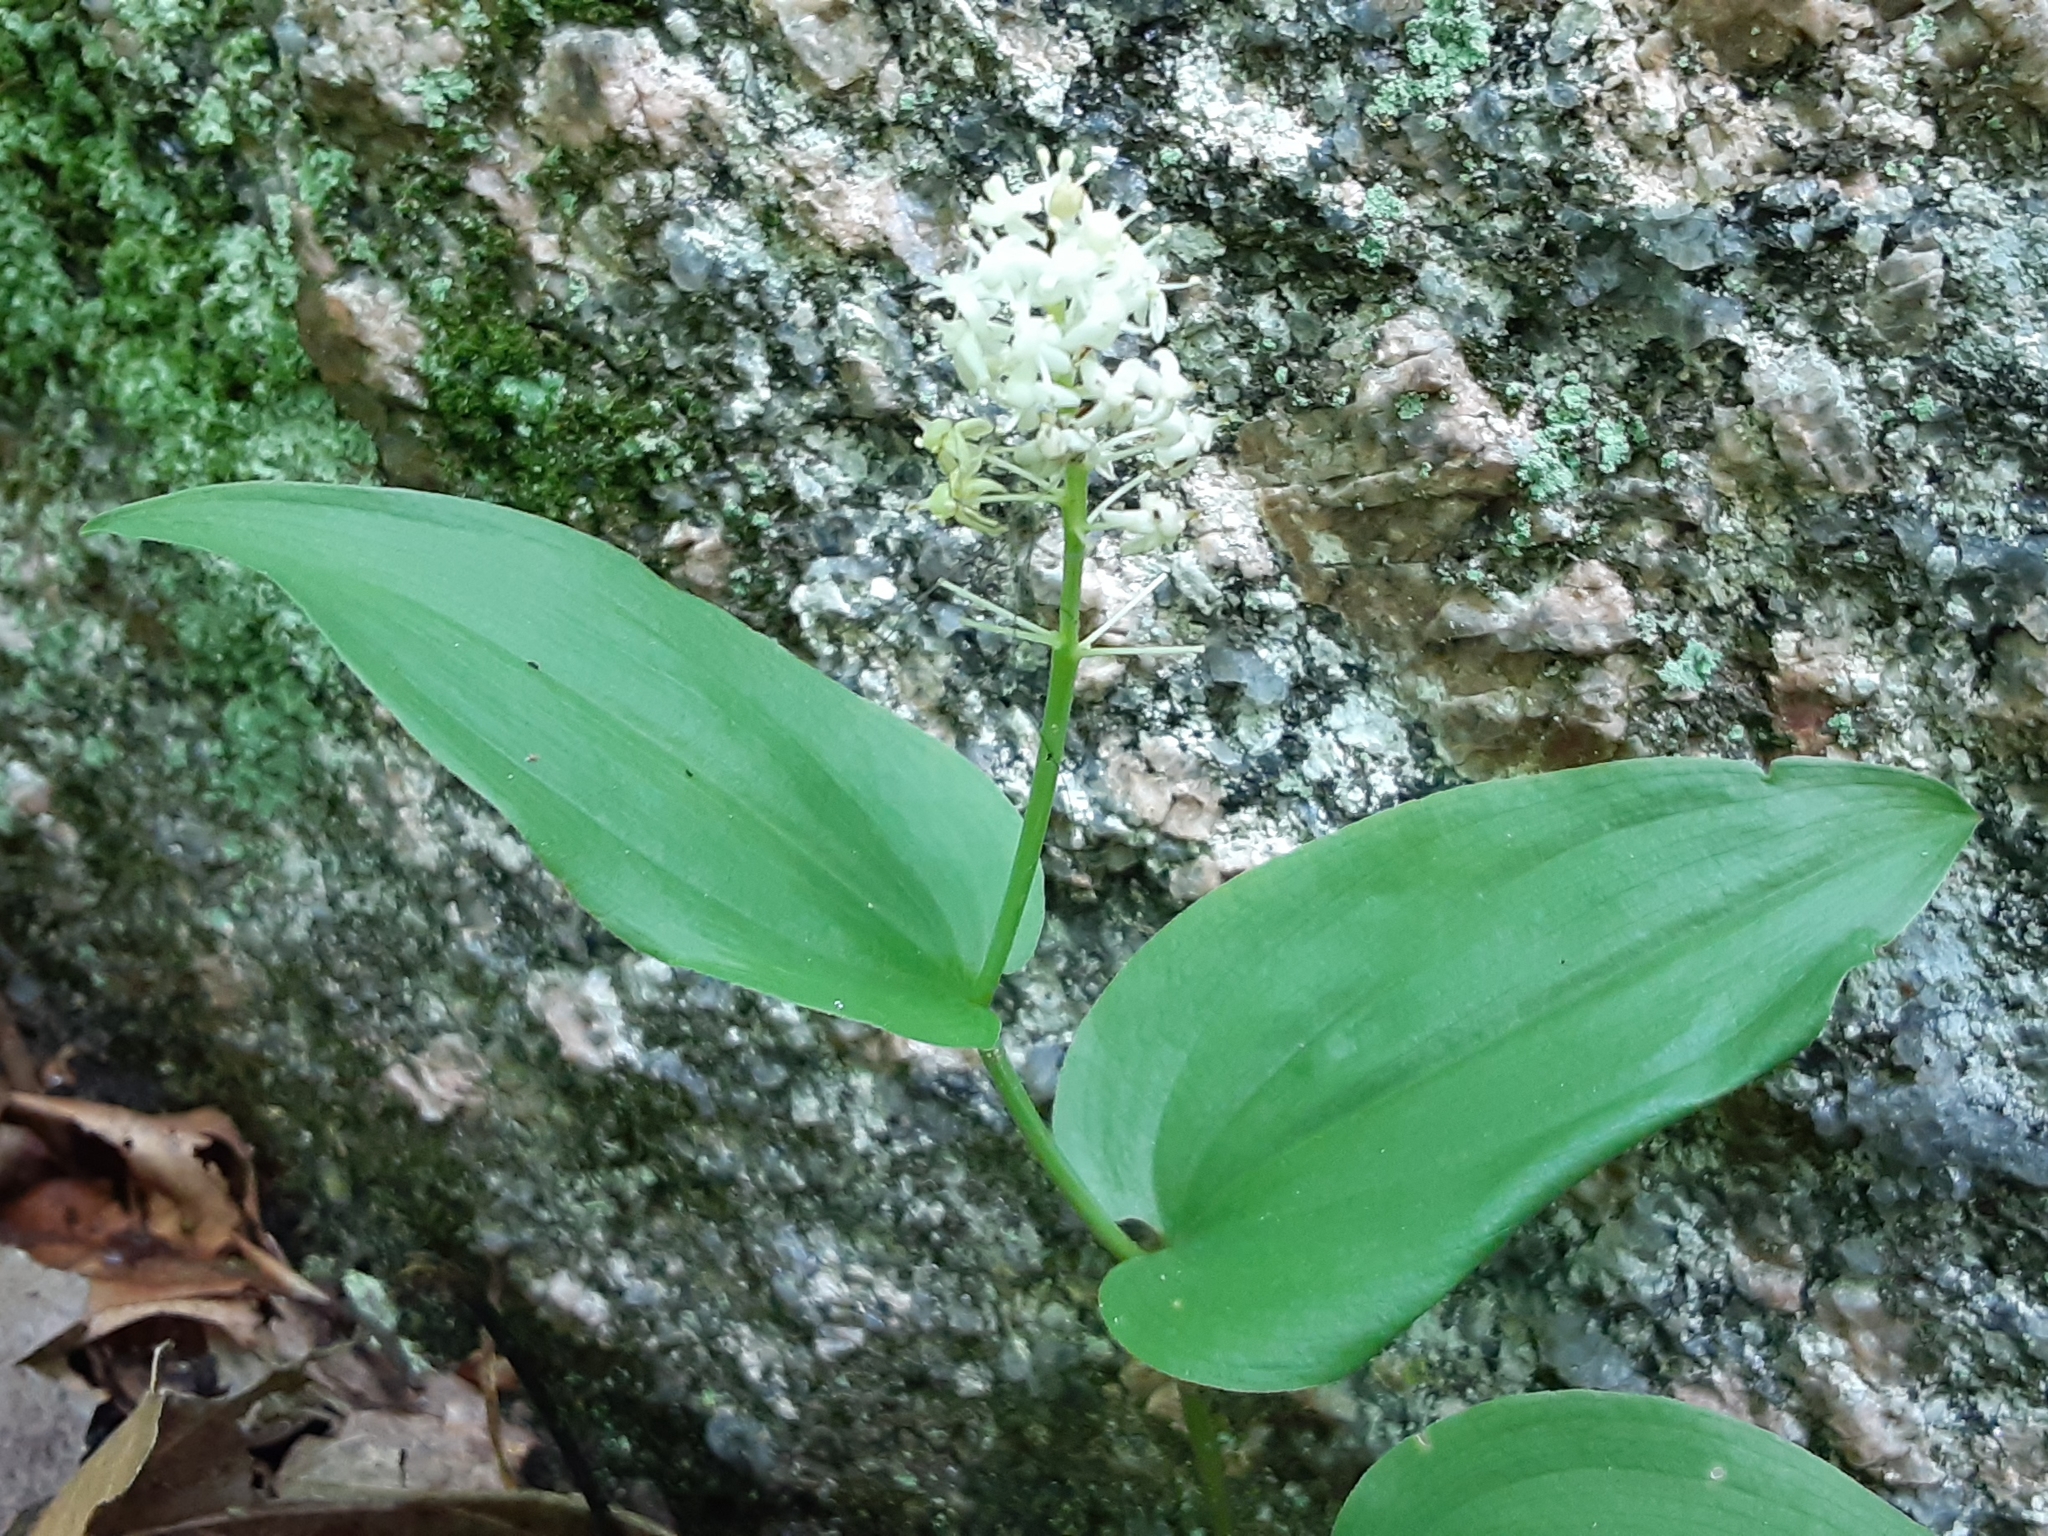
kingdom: Plantae
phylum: Tracheophyta
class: Liliopsida
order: Asparagales
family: Asparagaceae
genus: Maianthemum
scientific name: Maianthemum canadense
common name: False lily-of-the-valley
